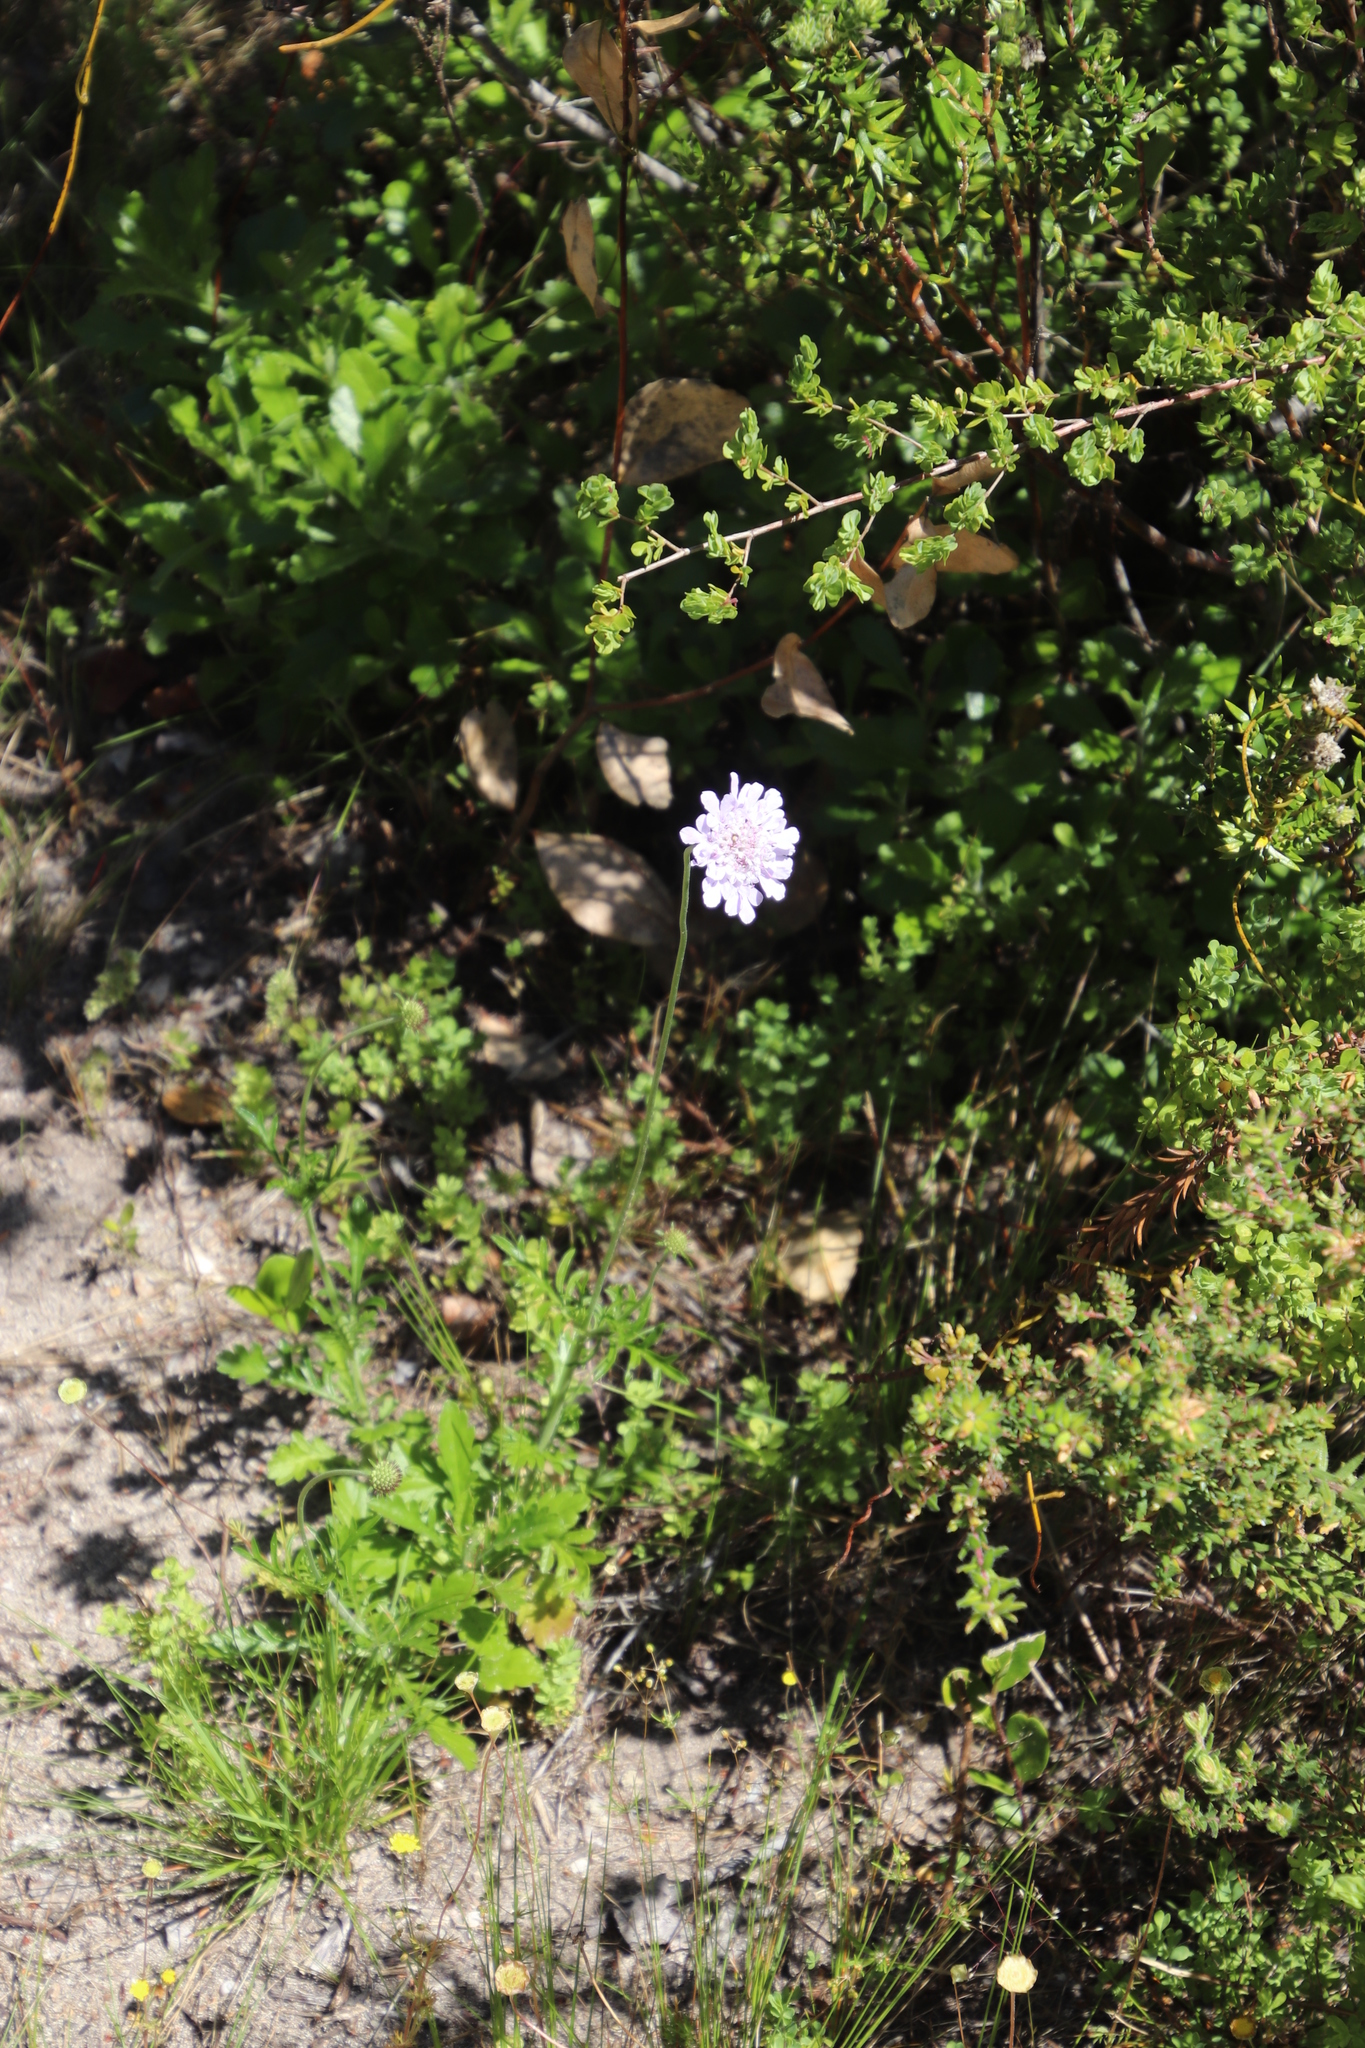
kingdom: Plantae
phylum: Tracheophyta
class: Magnoliopsida
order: Dipsacales
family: Caprifoliaceae
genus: Scabiosa
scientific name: Scabiosa columbaria
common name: Small scabious
